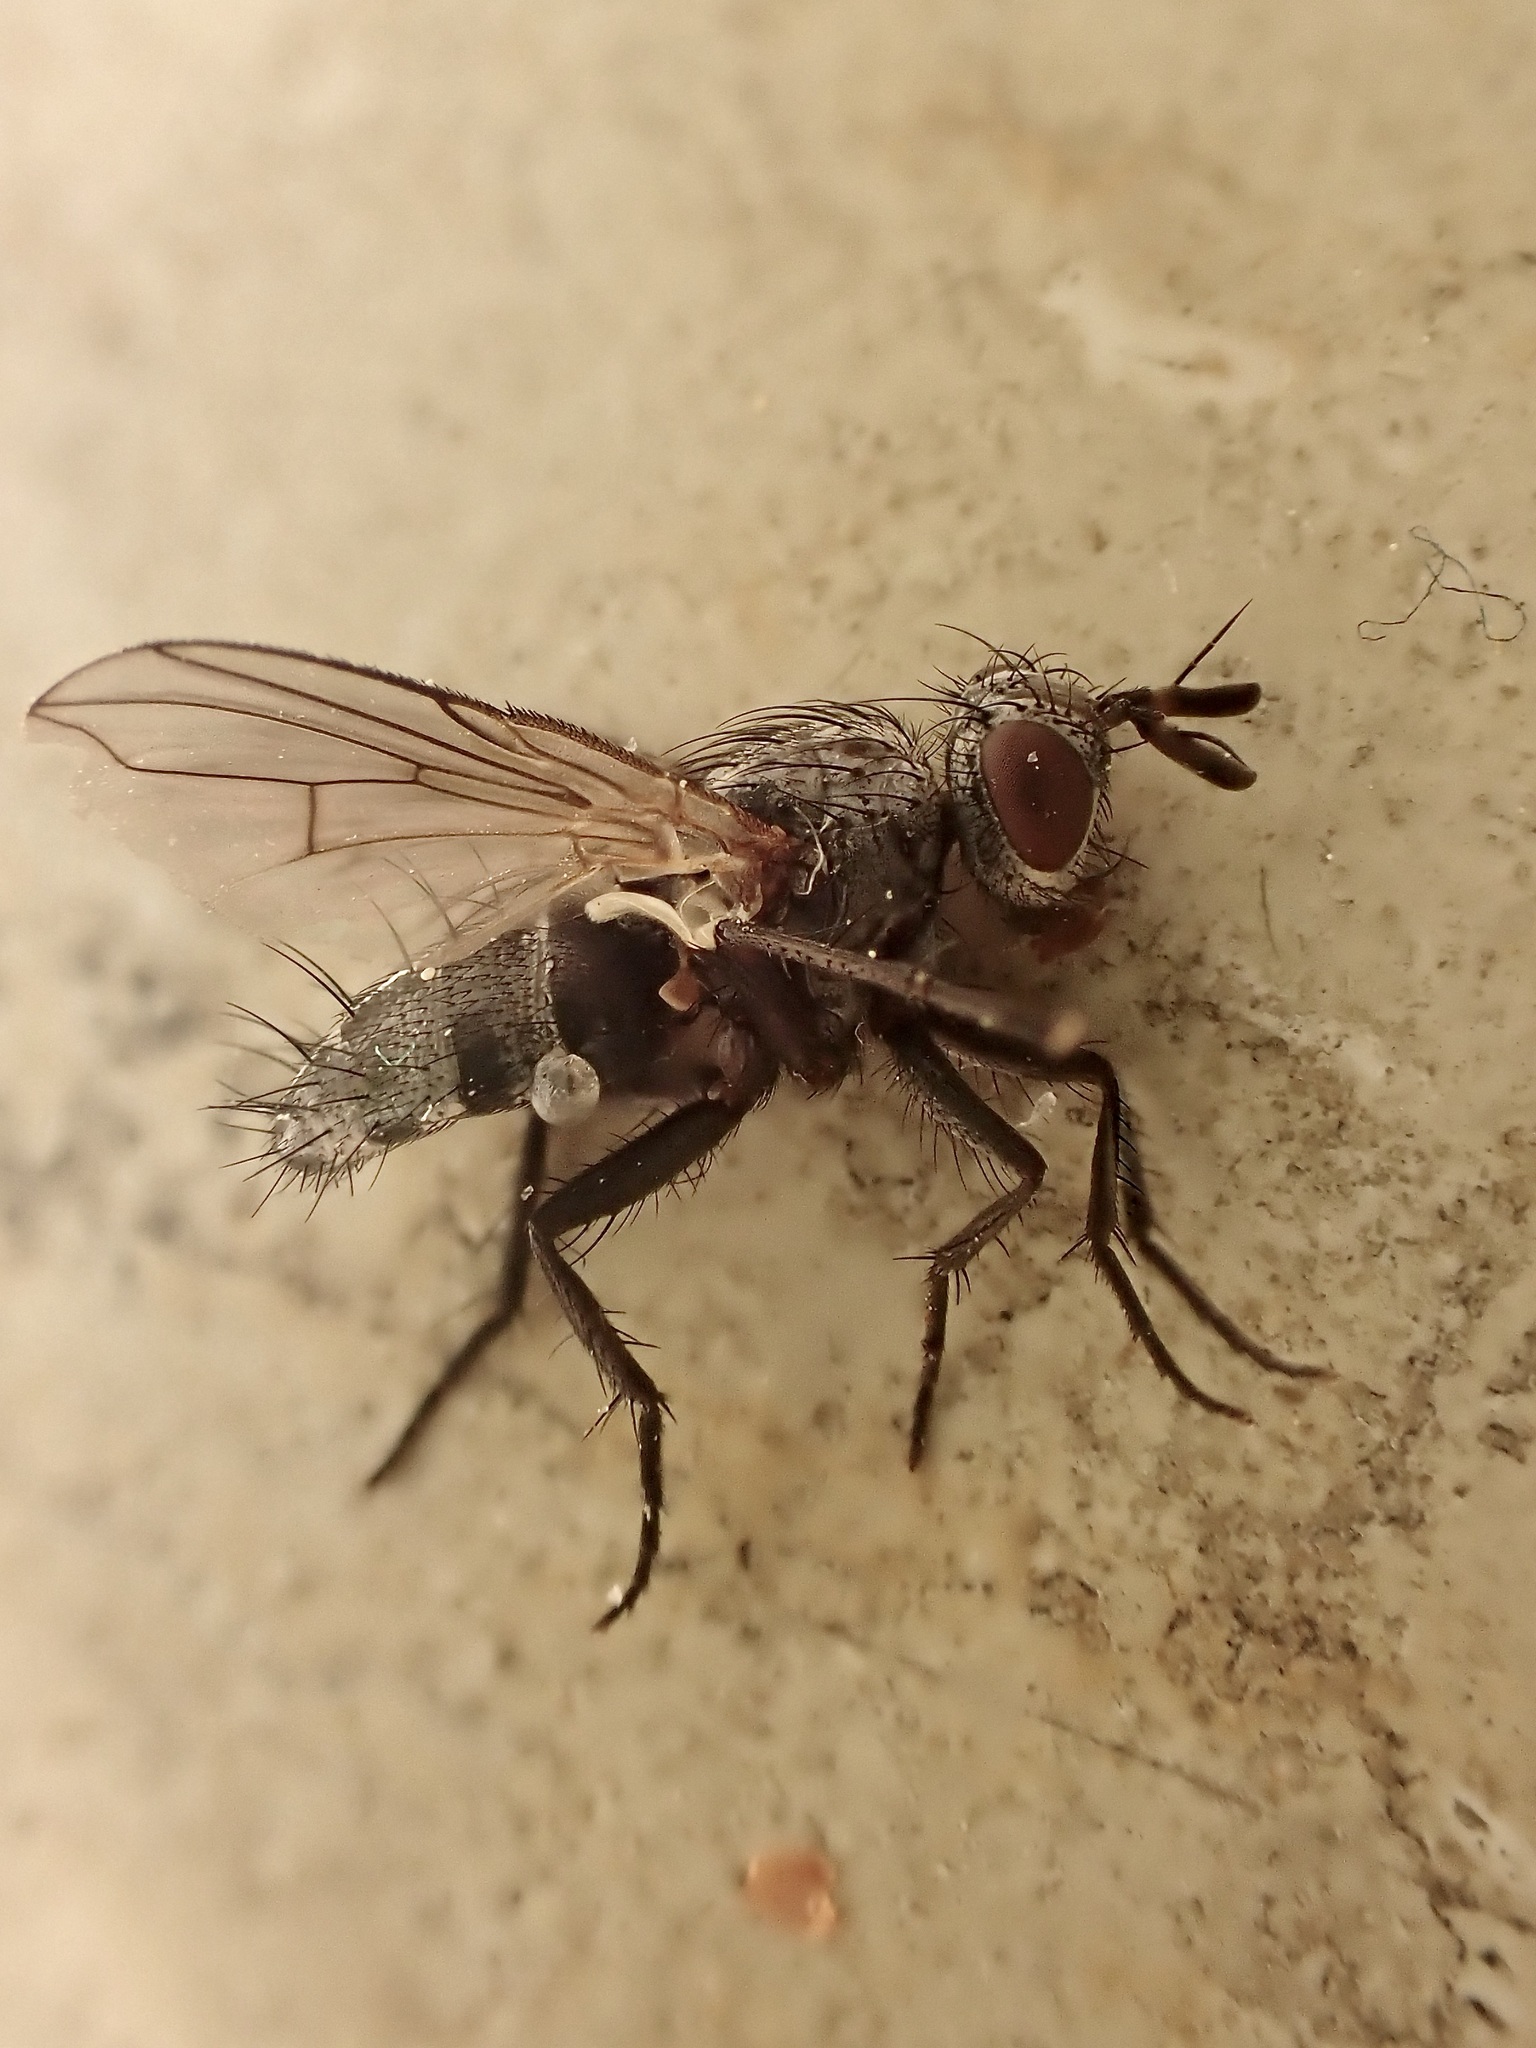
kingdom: Animalia
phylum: Arthropoda
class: Insecta
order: Diptera
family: Tachinidae
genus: Triarthria
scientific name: Triarthria setipennis
